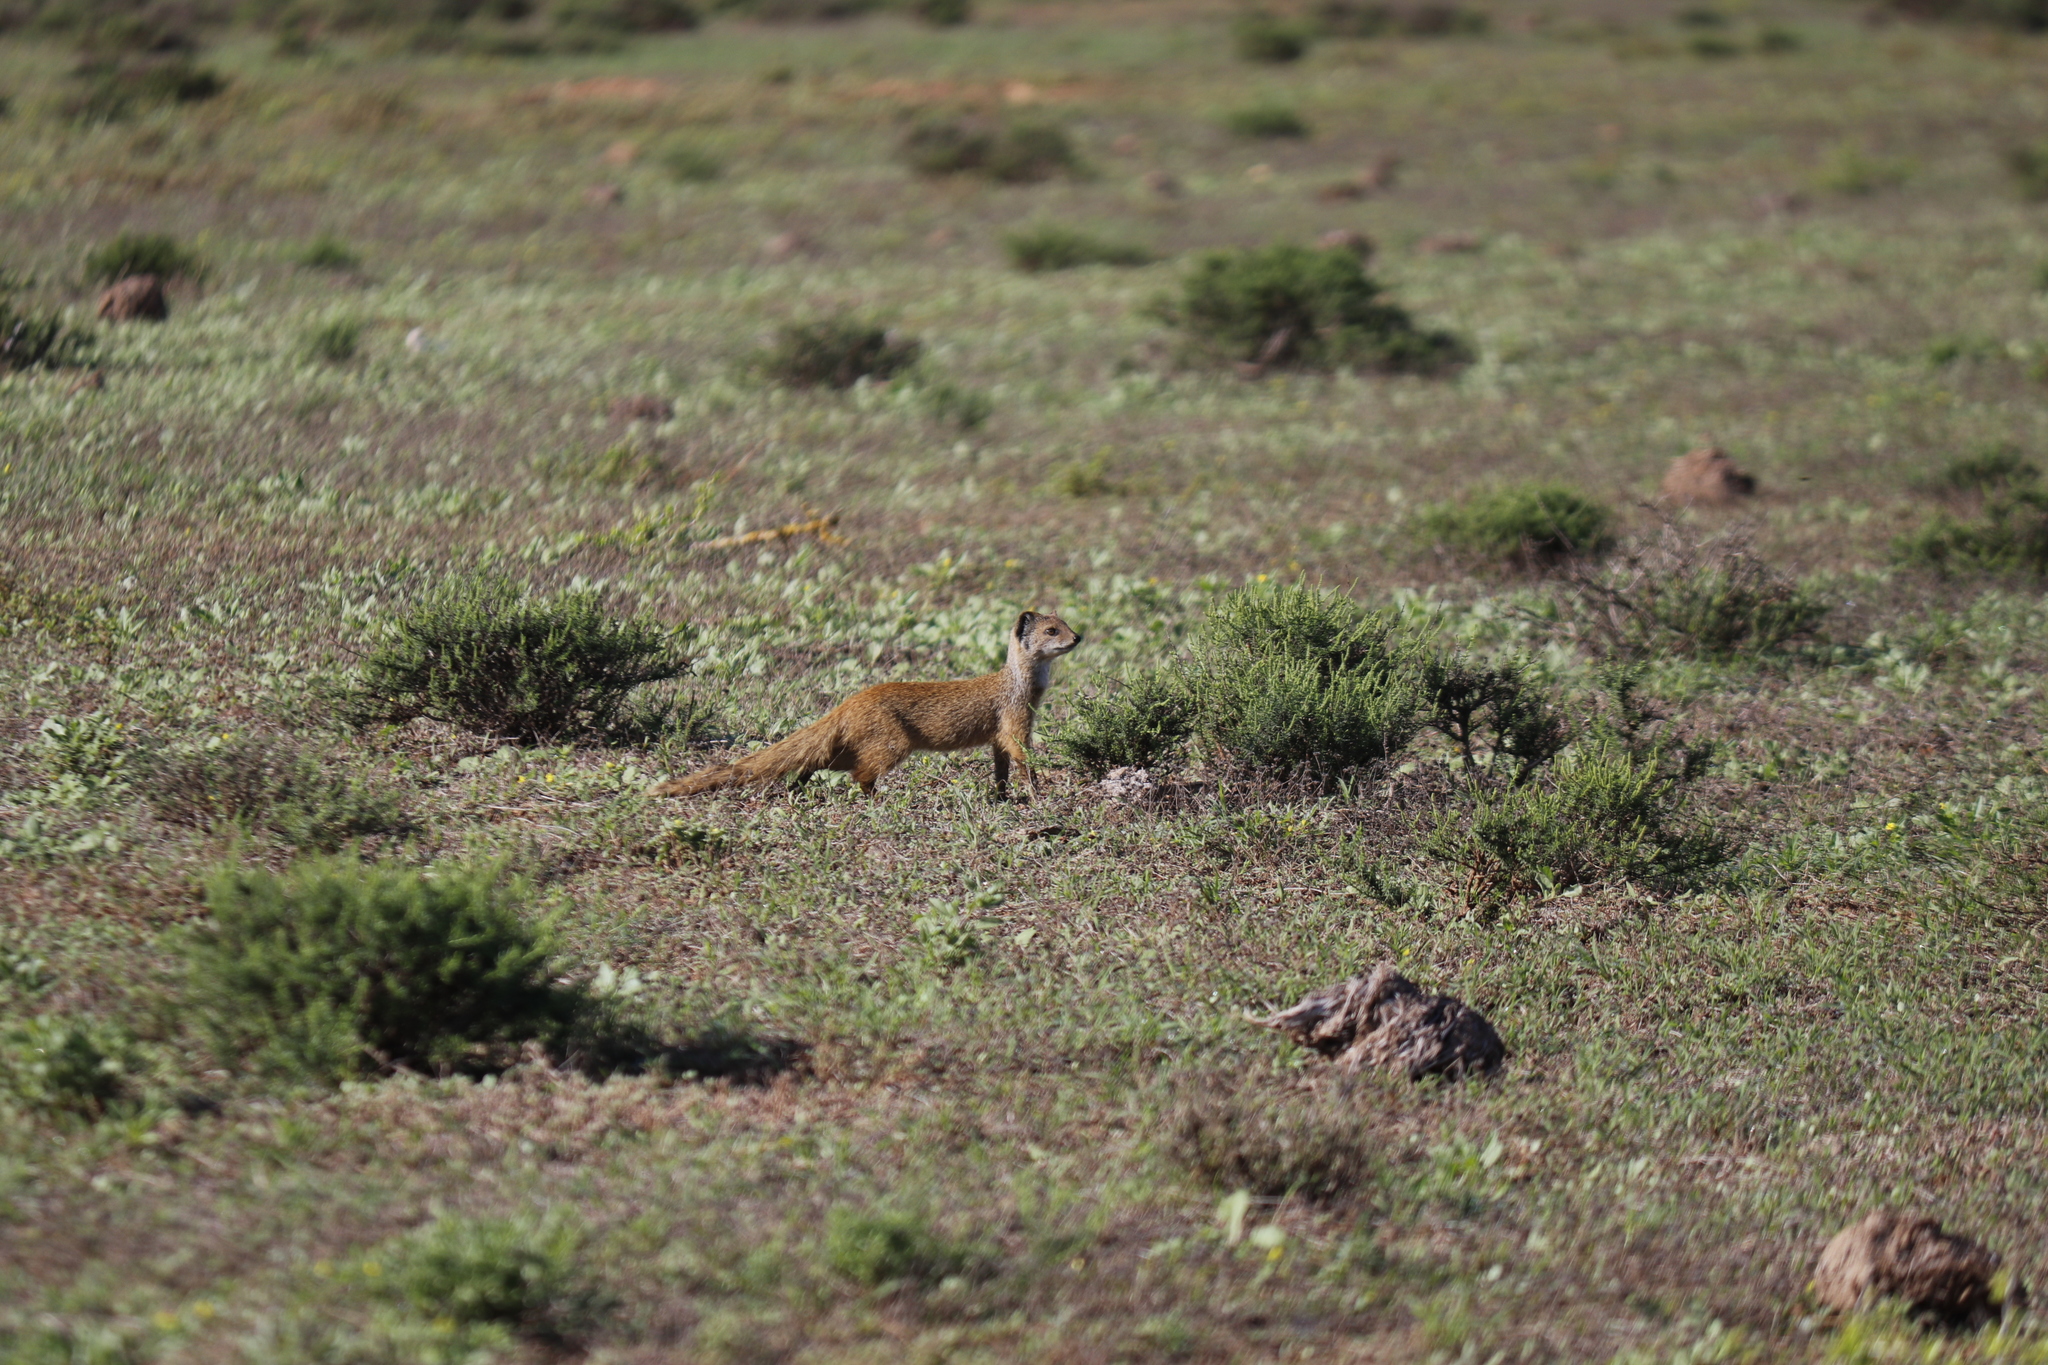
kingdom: Animalia
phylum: Chordata
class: Mammalia
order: Carnivora
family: Herpestidae
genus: Cynictis
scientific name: Cynictis penicillata
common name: Yellow mongoose
